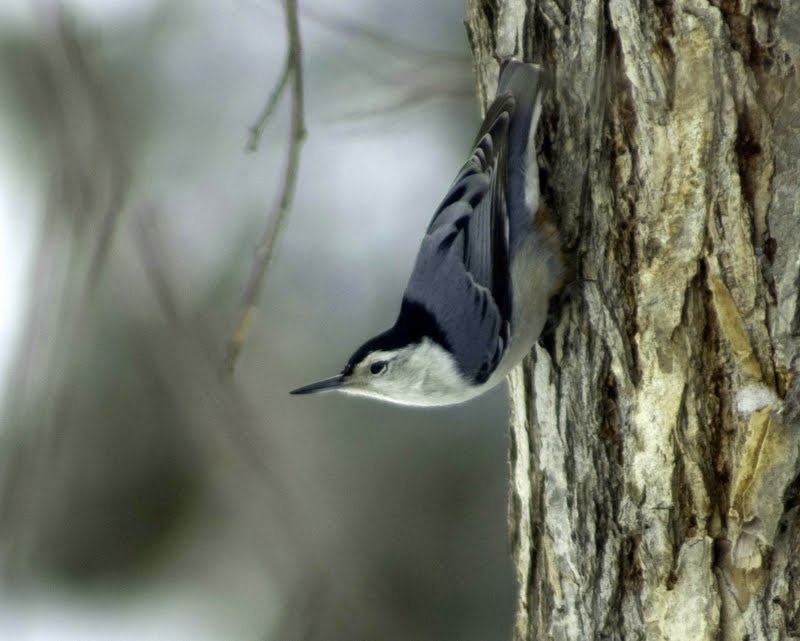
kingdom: Animalia
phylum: Chordata
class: Aves
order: Passeriformes
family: Sittidae
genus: Sitta
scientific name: Sitta carolinensis
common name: White-breasted nuthatch
